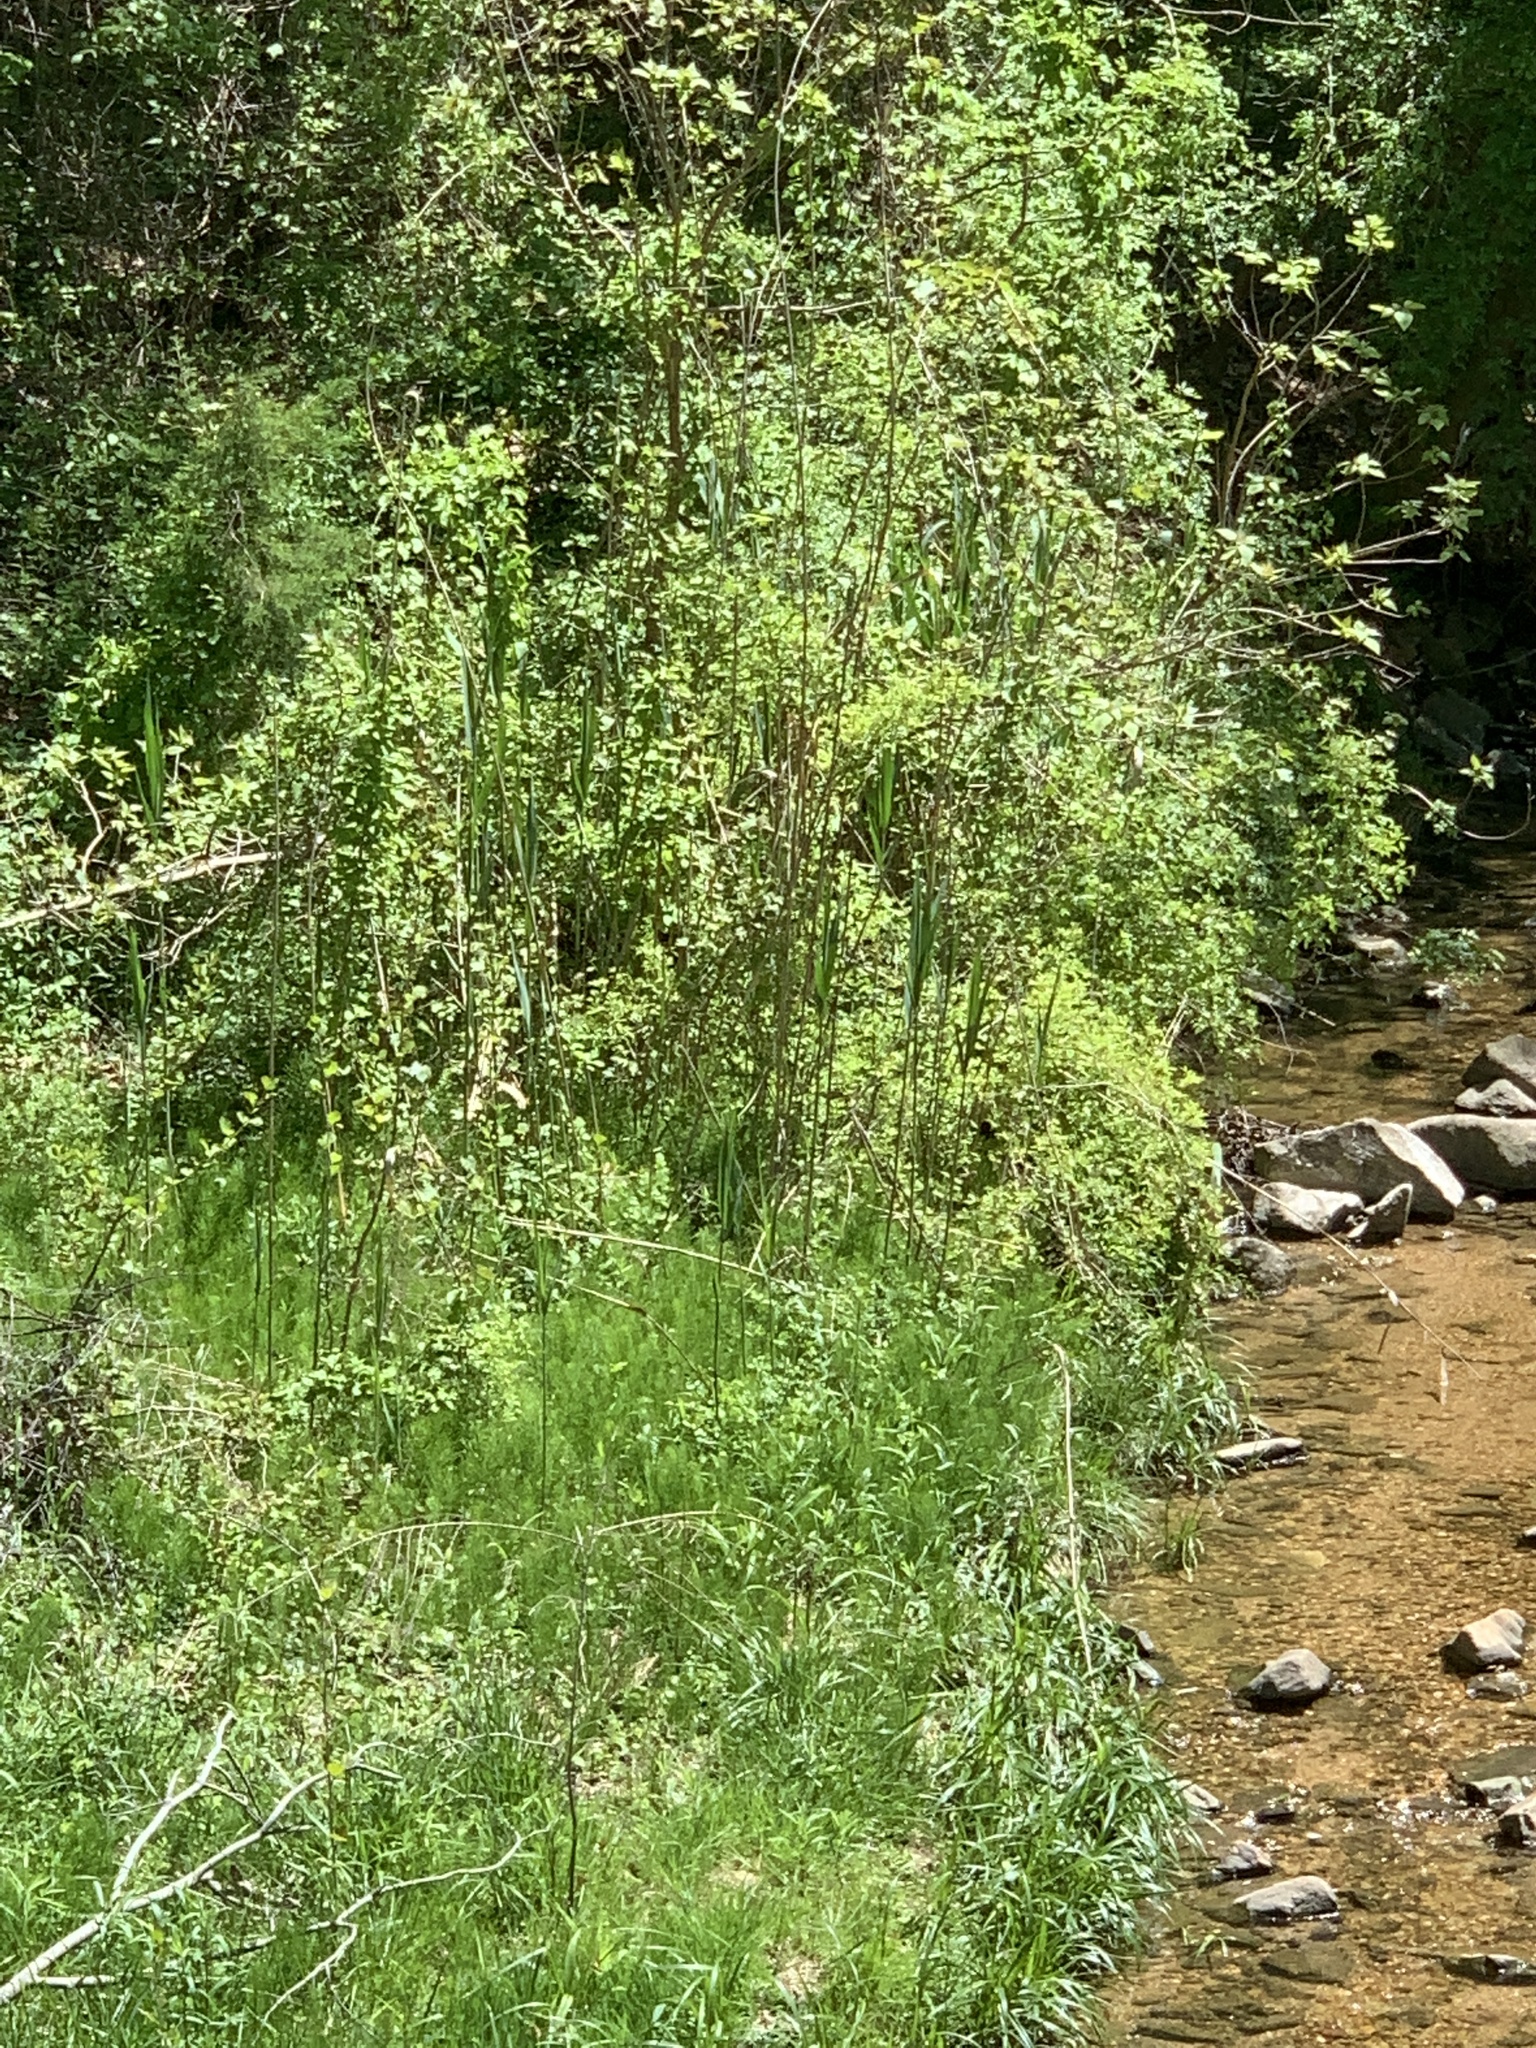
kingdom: Plantae
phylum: Tracheophyta
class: Liliopsida
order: Poales
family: Poaceae
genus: Phragmites
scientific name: Phragmites australis
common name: Common reed
